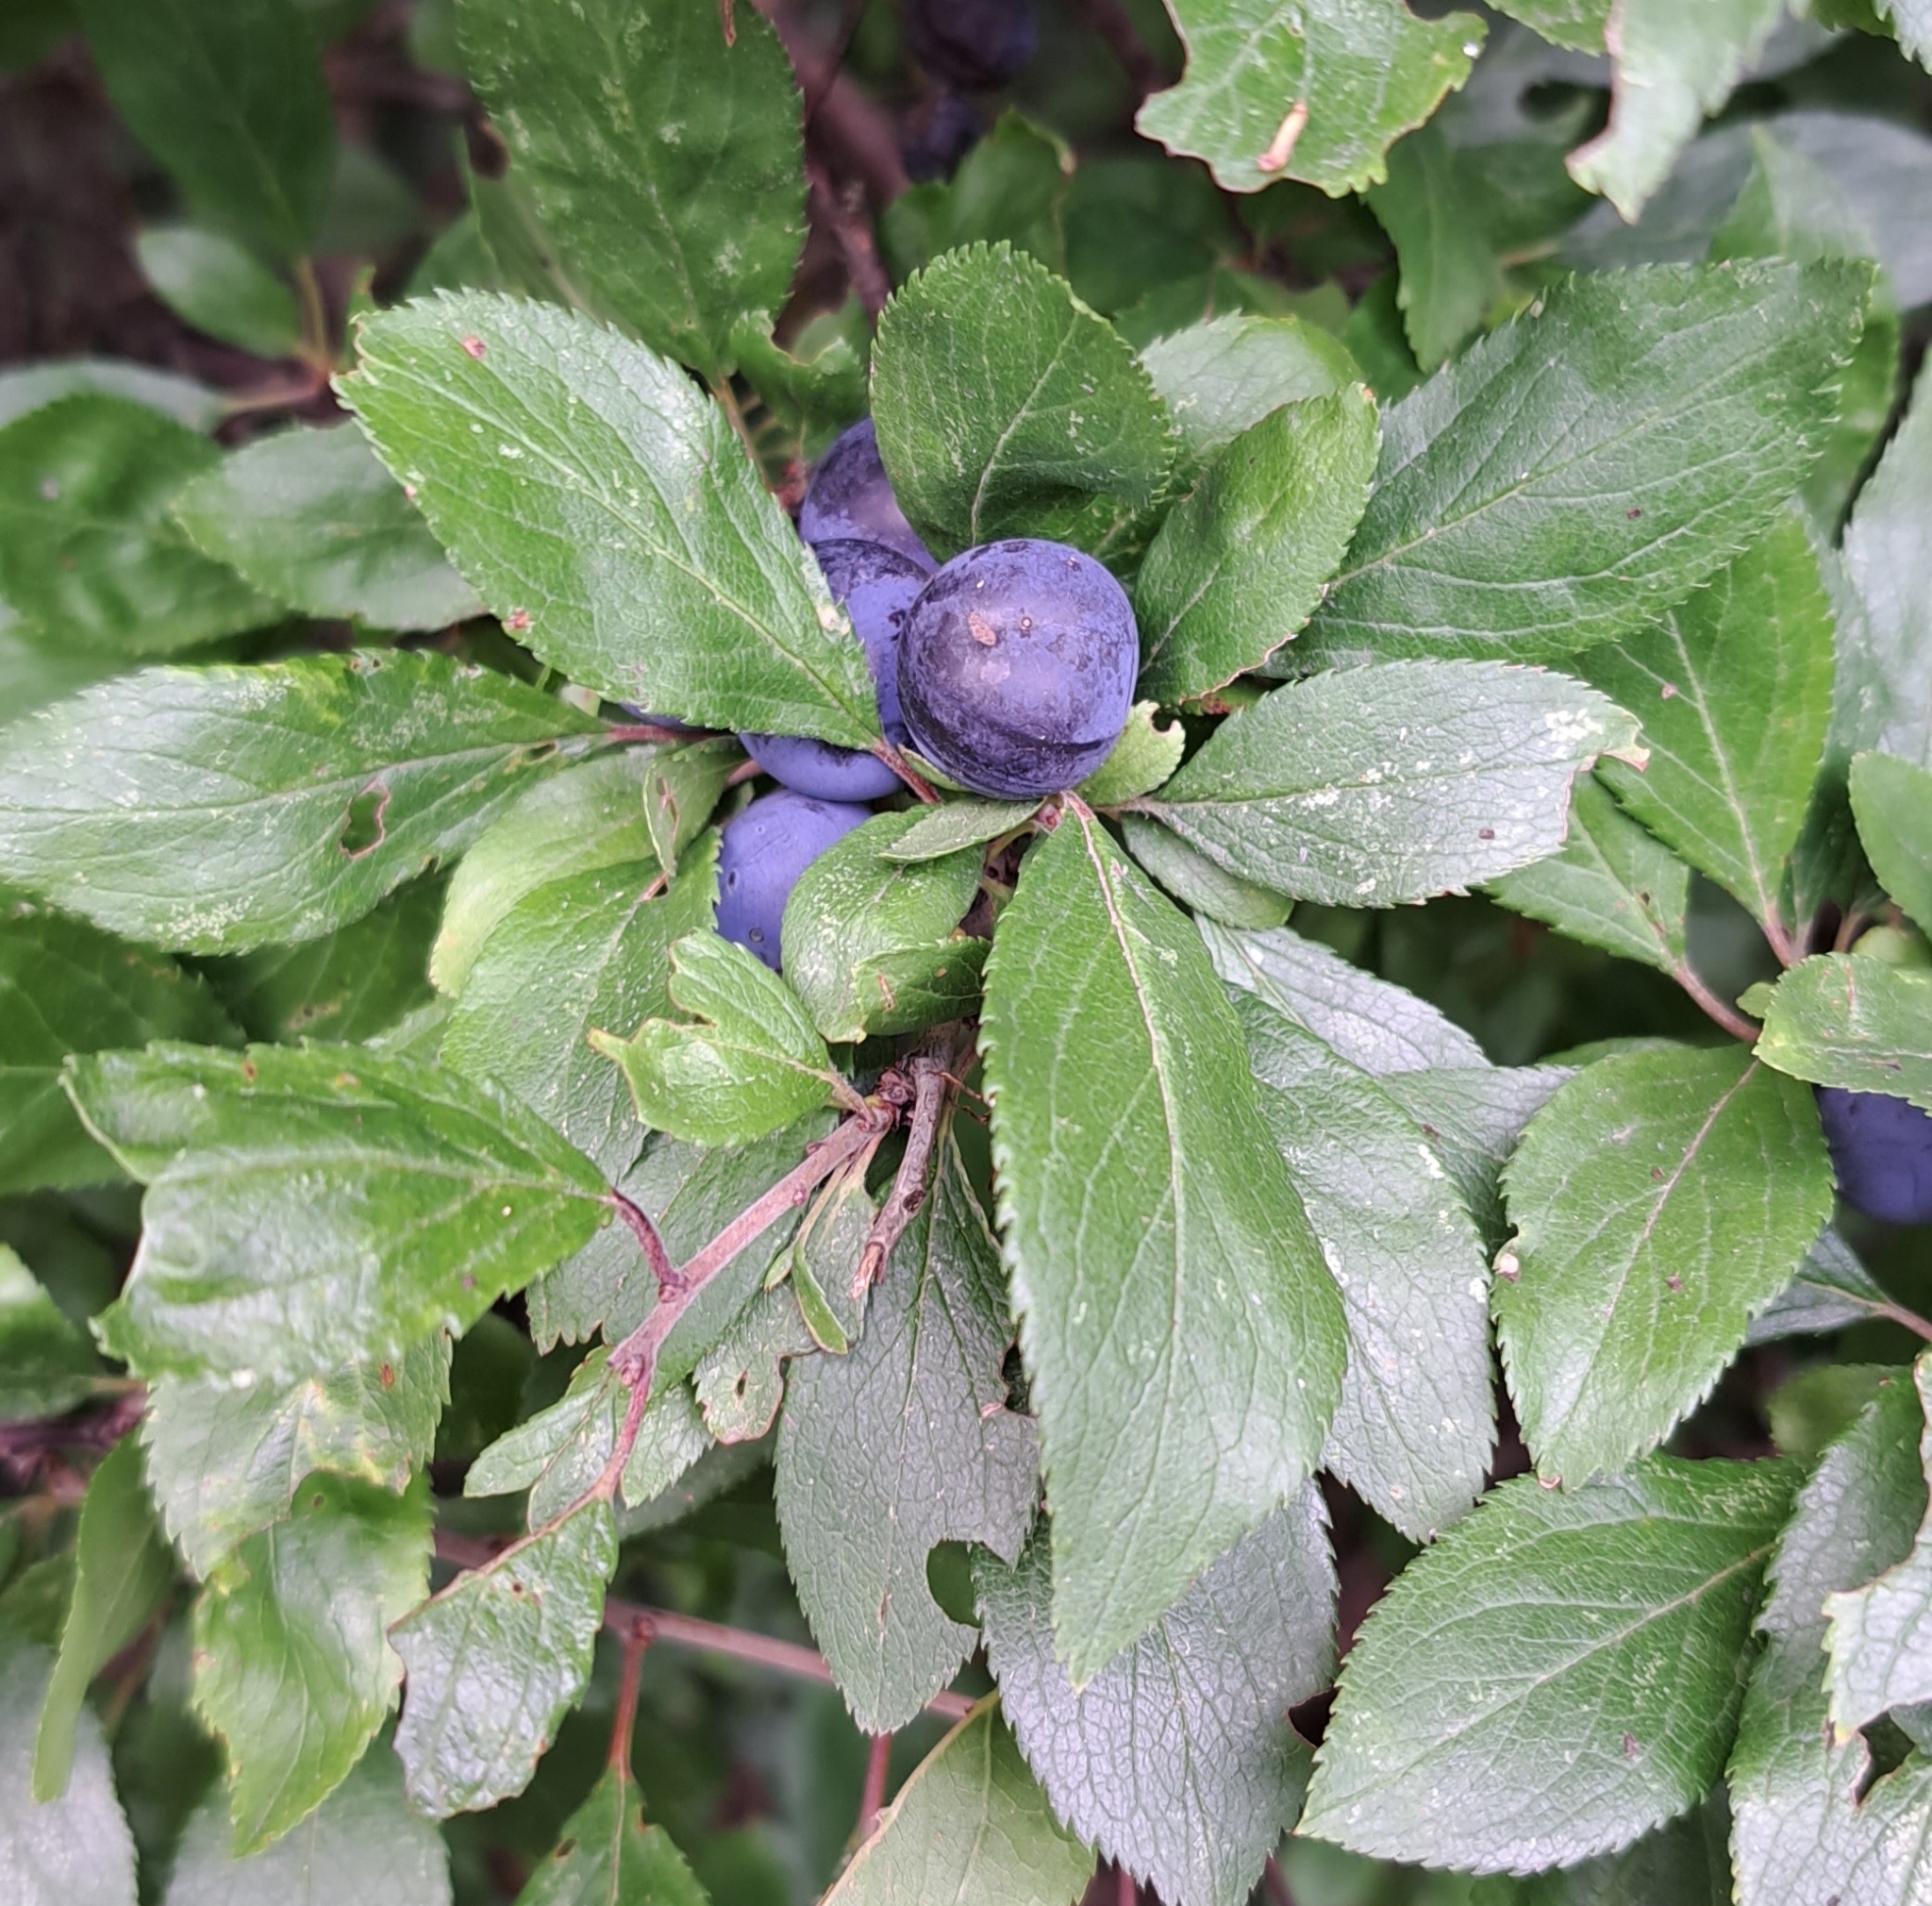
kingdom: Plantae
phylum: Tracheophyta
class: Magnoliopsida
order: Rosales
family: Rosaceae
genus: Prunus
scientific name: Prunus spinosa
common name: Blackthorn
